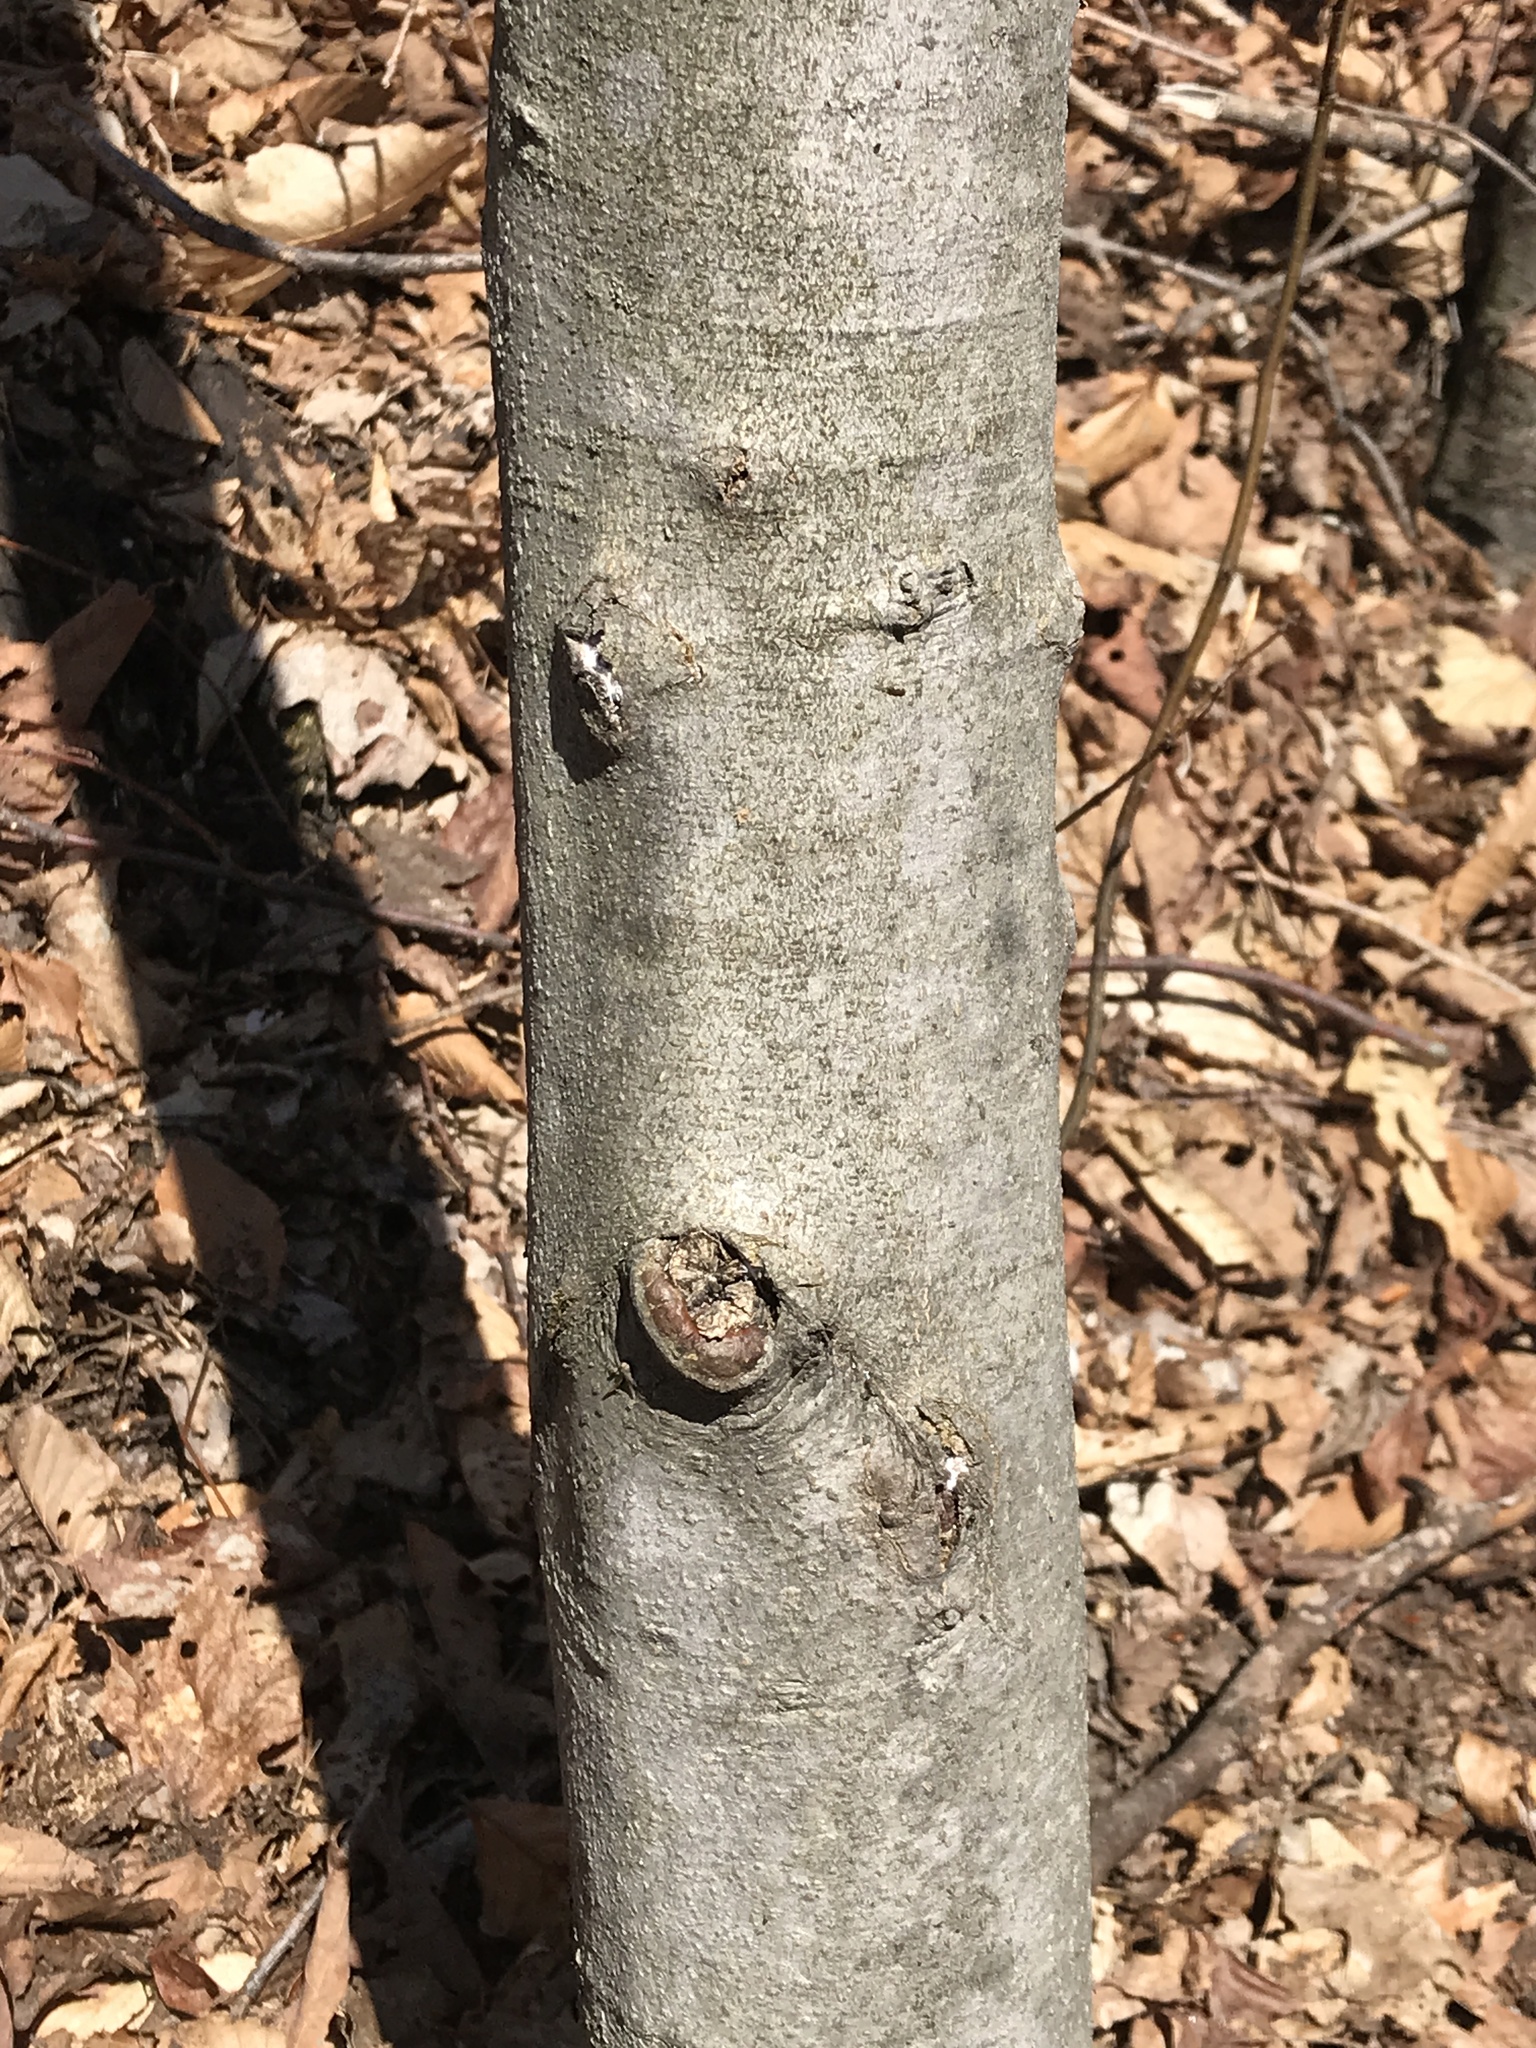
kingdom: Plantae
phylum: Tracheophyta
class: Magnoliopsida
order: Fagales
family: Fagaceae
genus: Fagus
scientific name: Fagus grandifolia
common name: American beech
